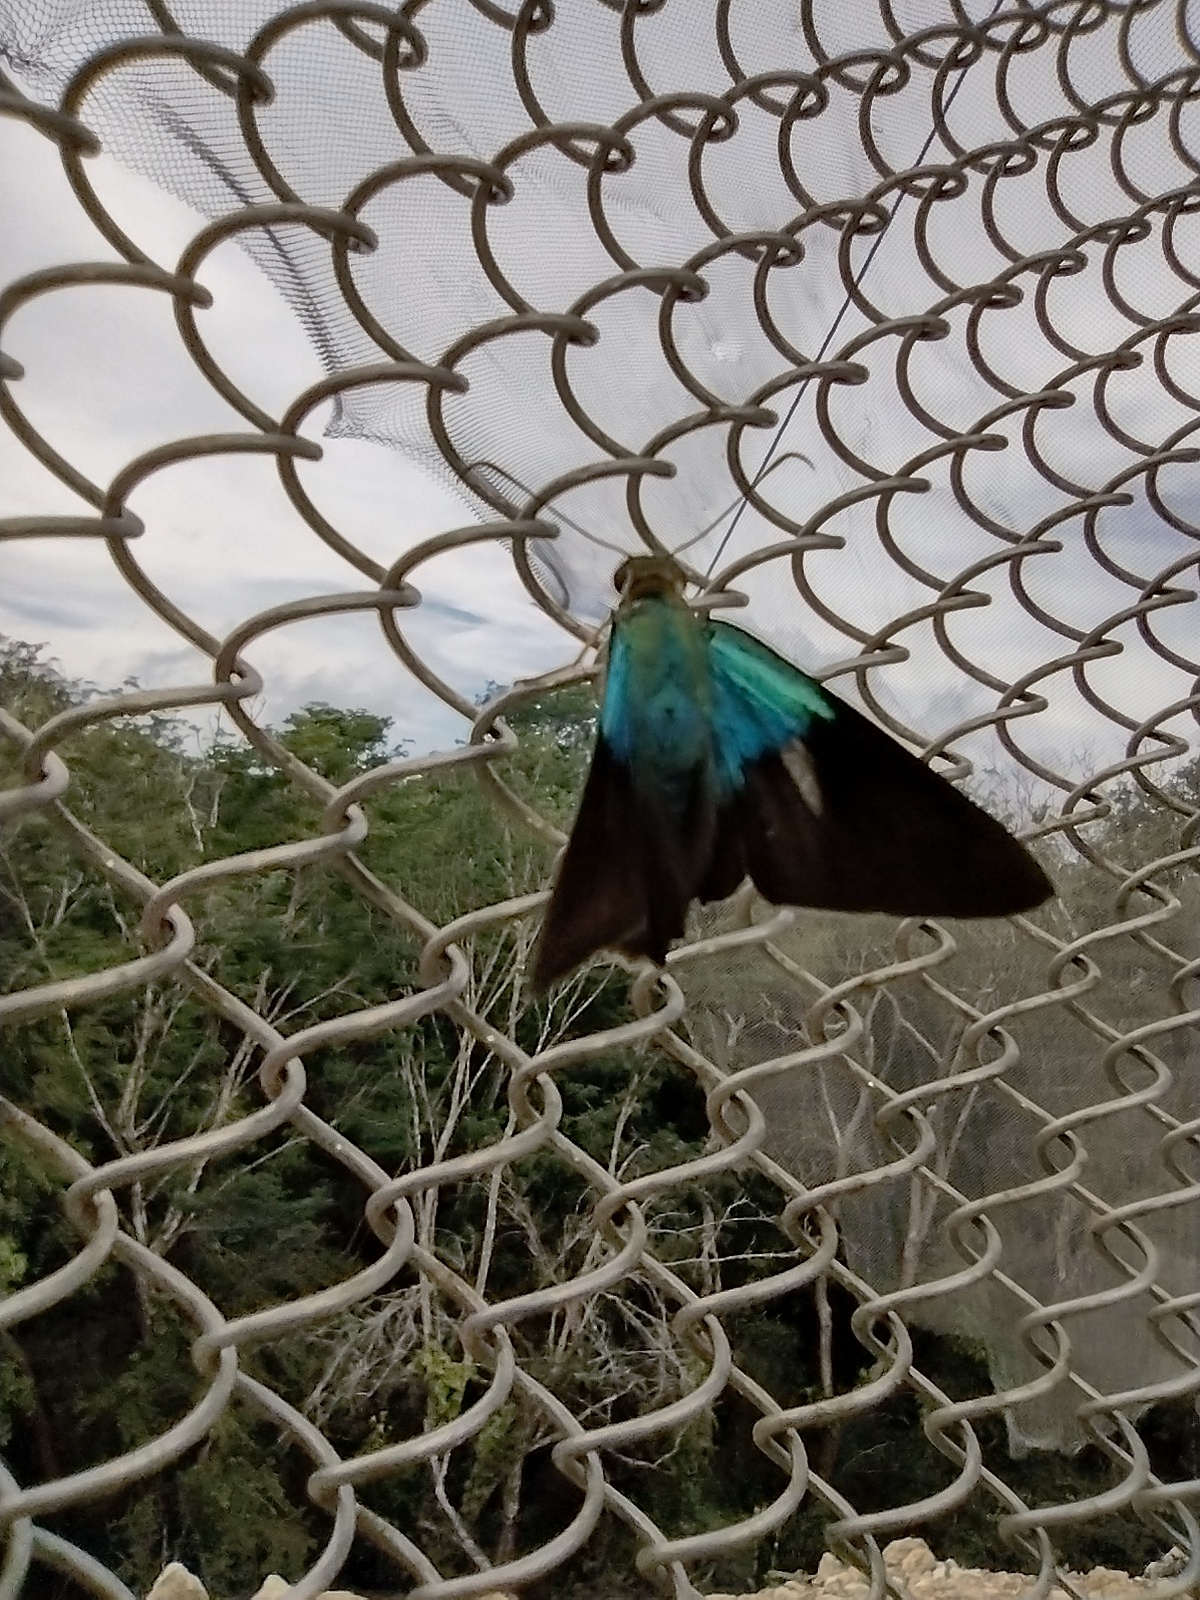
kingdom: Animalia
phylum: Arthropoda
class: Insecta
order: Lepidoptera
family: Hesperiidae
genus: Astraptes
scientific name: Astraptes alector
